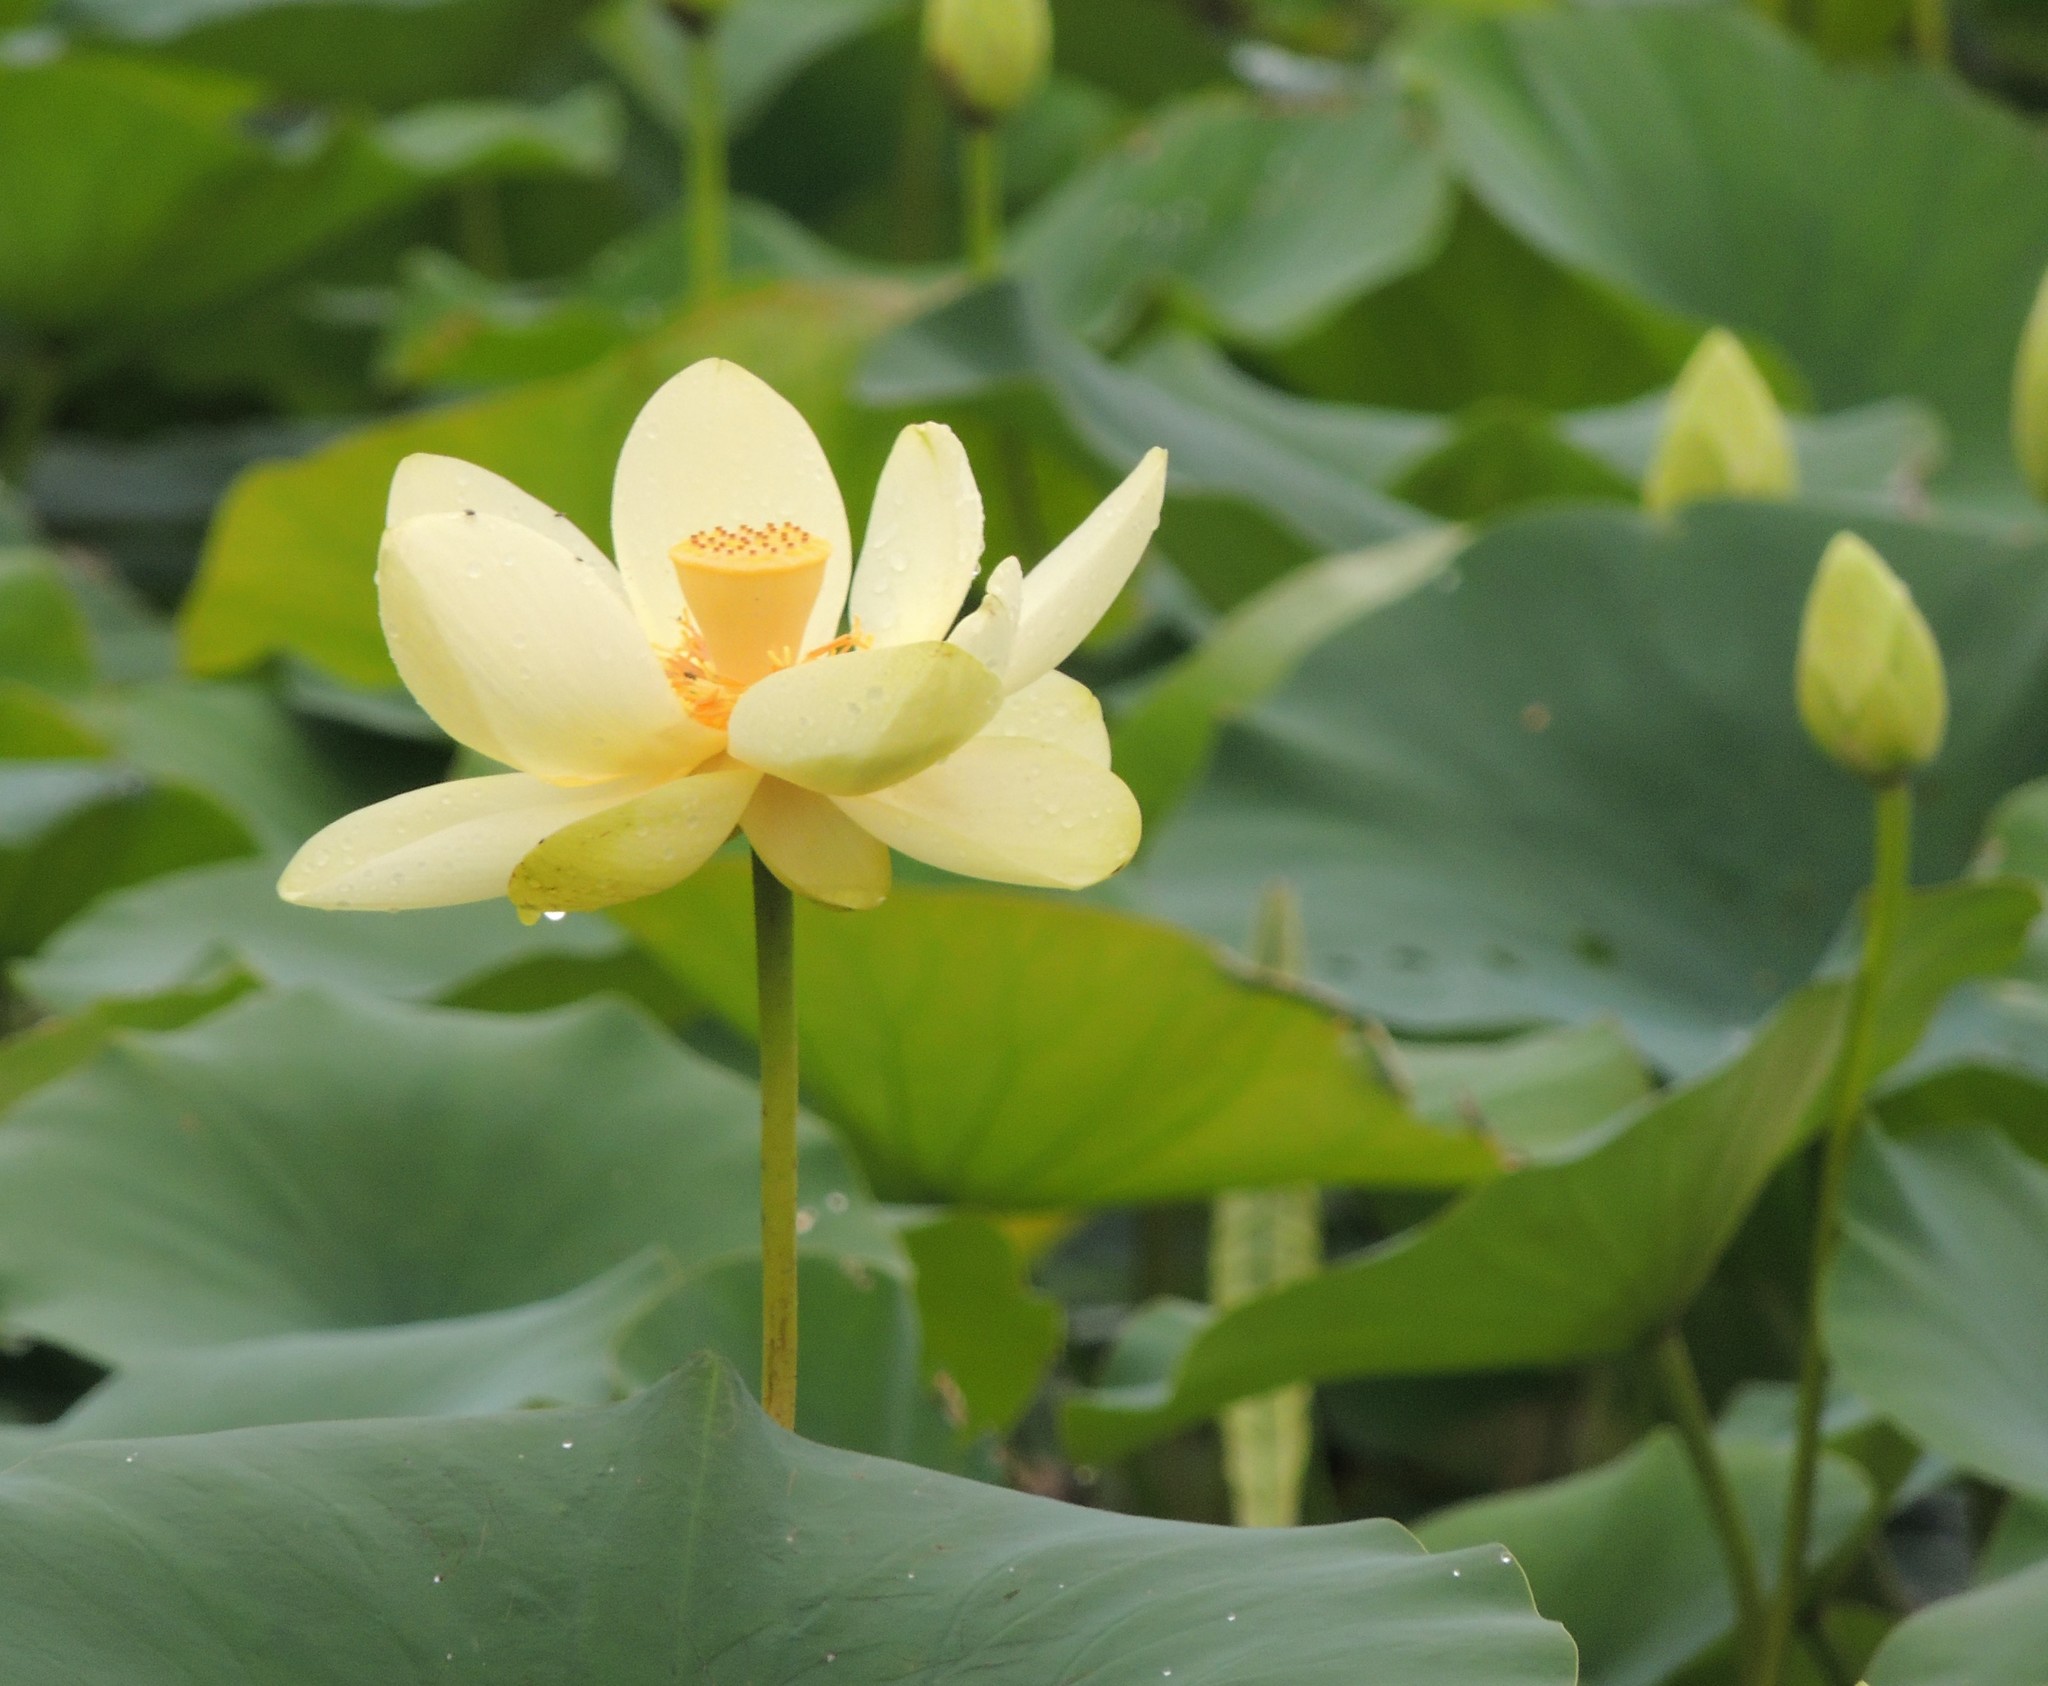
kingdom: Plantae
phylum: Tracheophyta
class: Magnoliopsida
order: Proteales
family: Nelumbonaceae
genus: Nelumbo
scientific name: Nelumbo lutea
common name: American lotus
